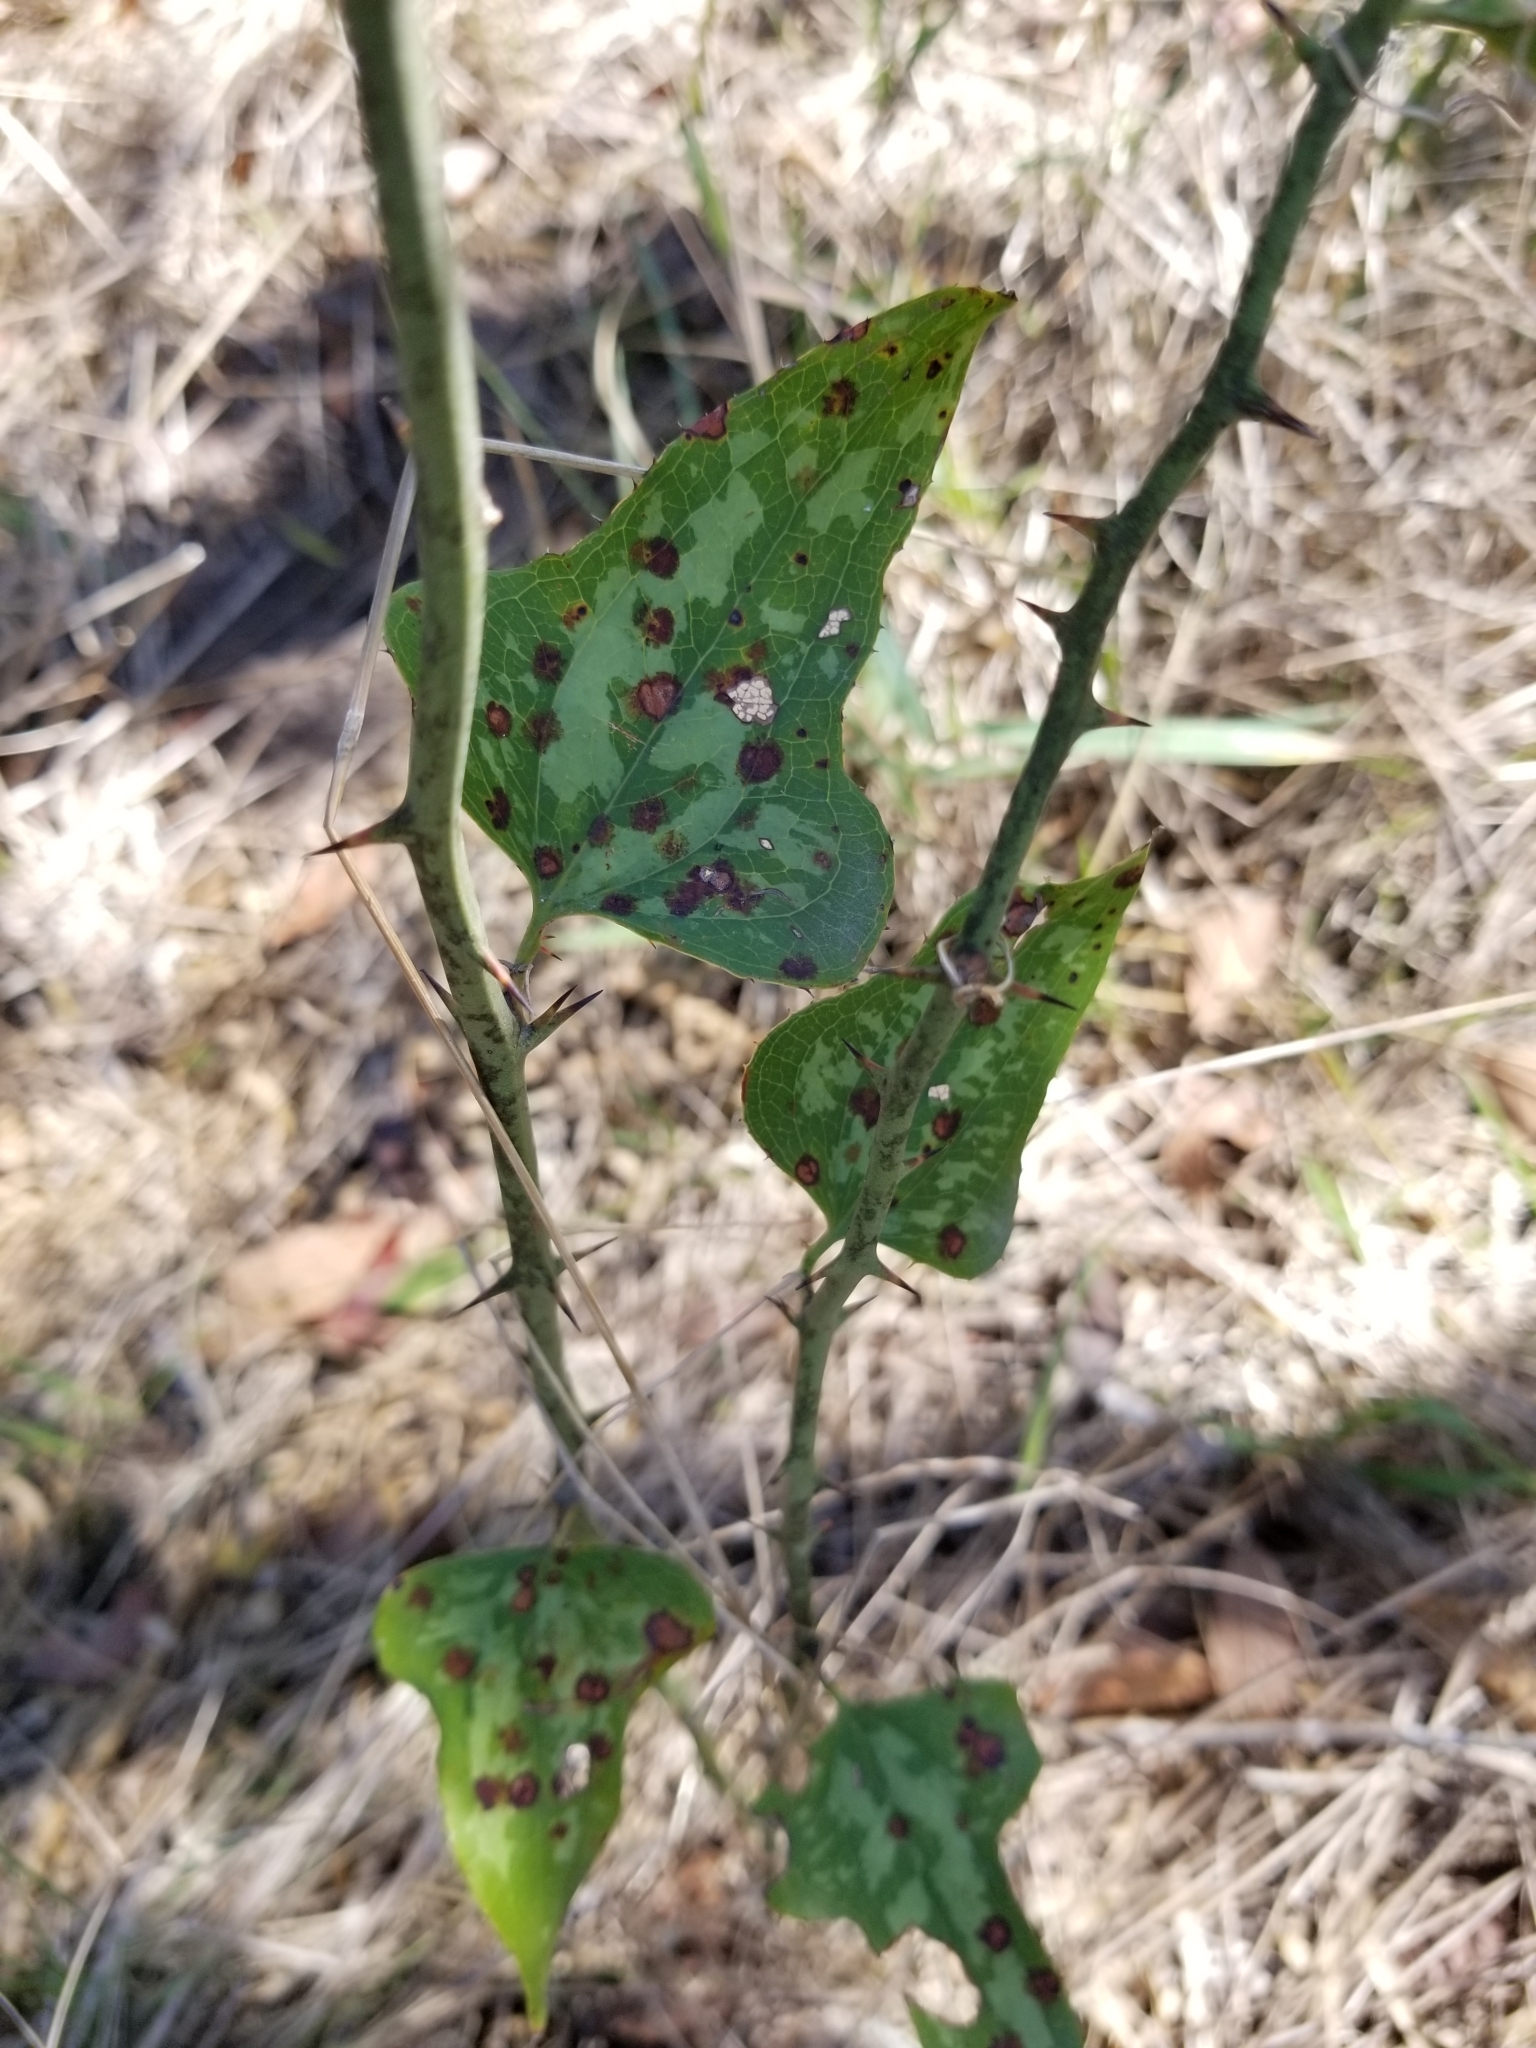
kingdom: Plantae
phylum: Tracheophyta
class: Liliopsida
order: Liliales
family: Smilacaceae
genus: Smilax
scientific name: Smilax bona-nox
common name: Catbrier
